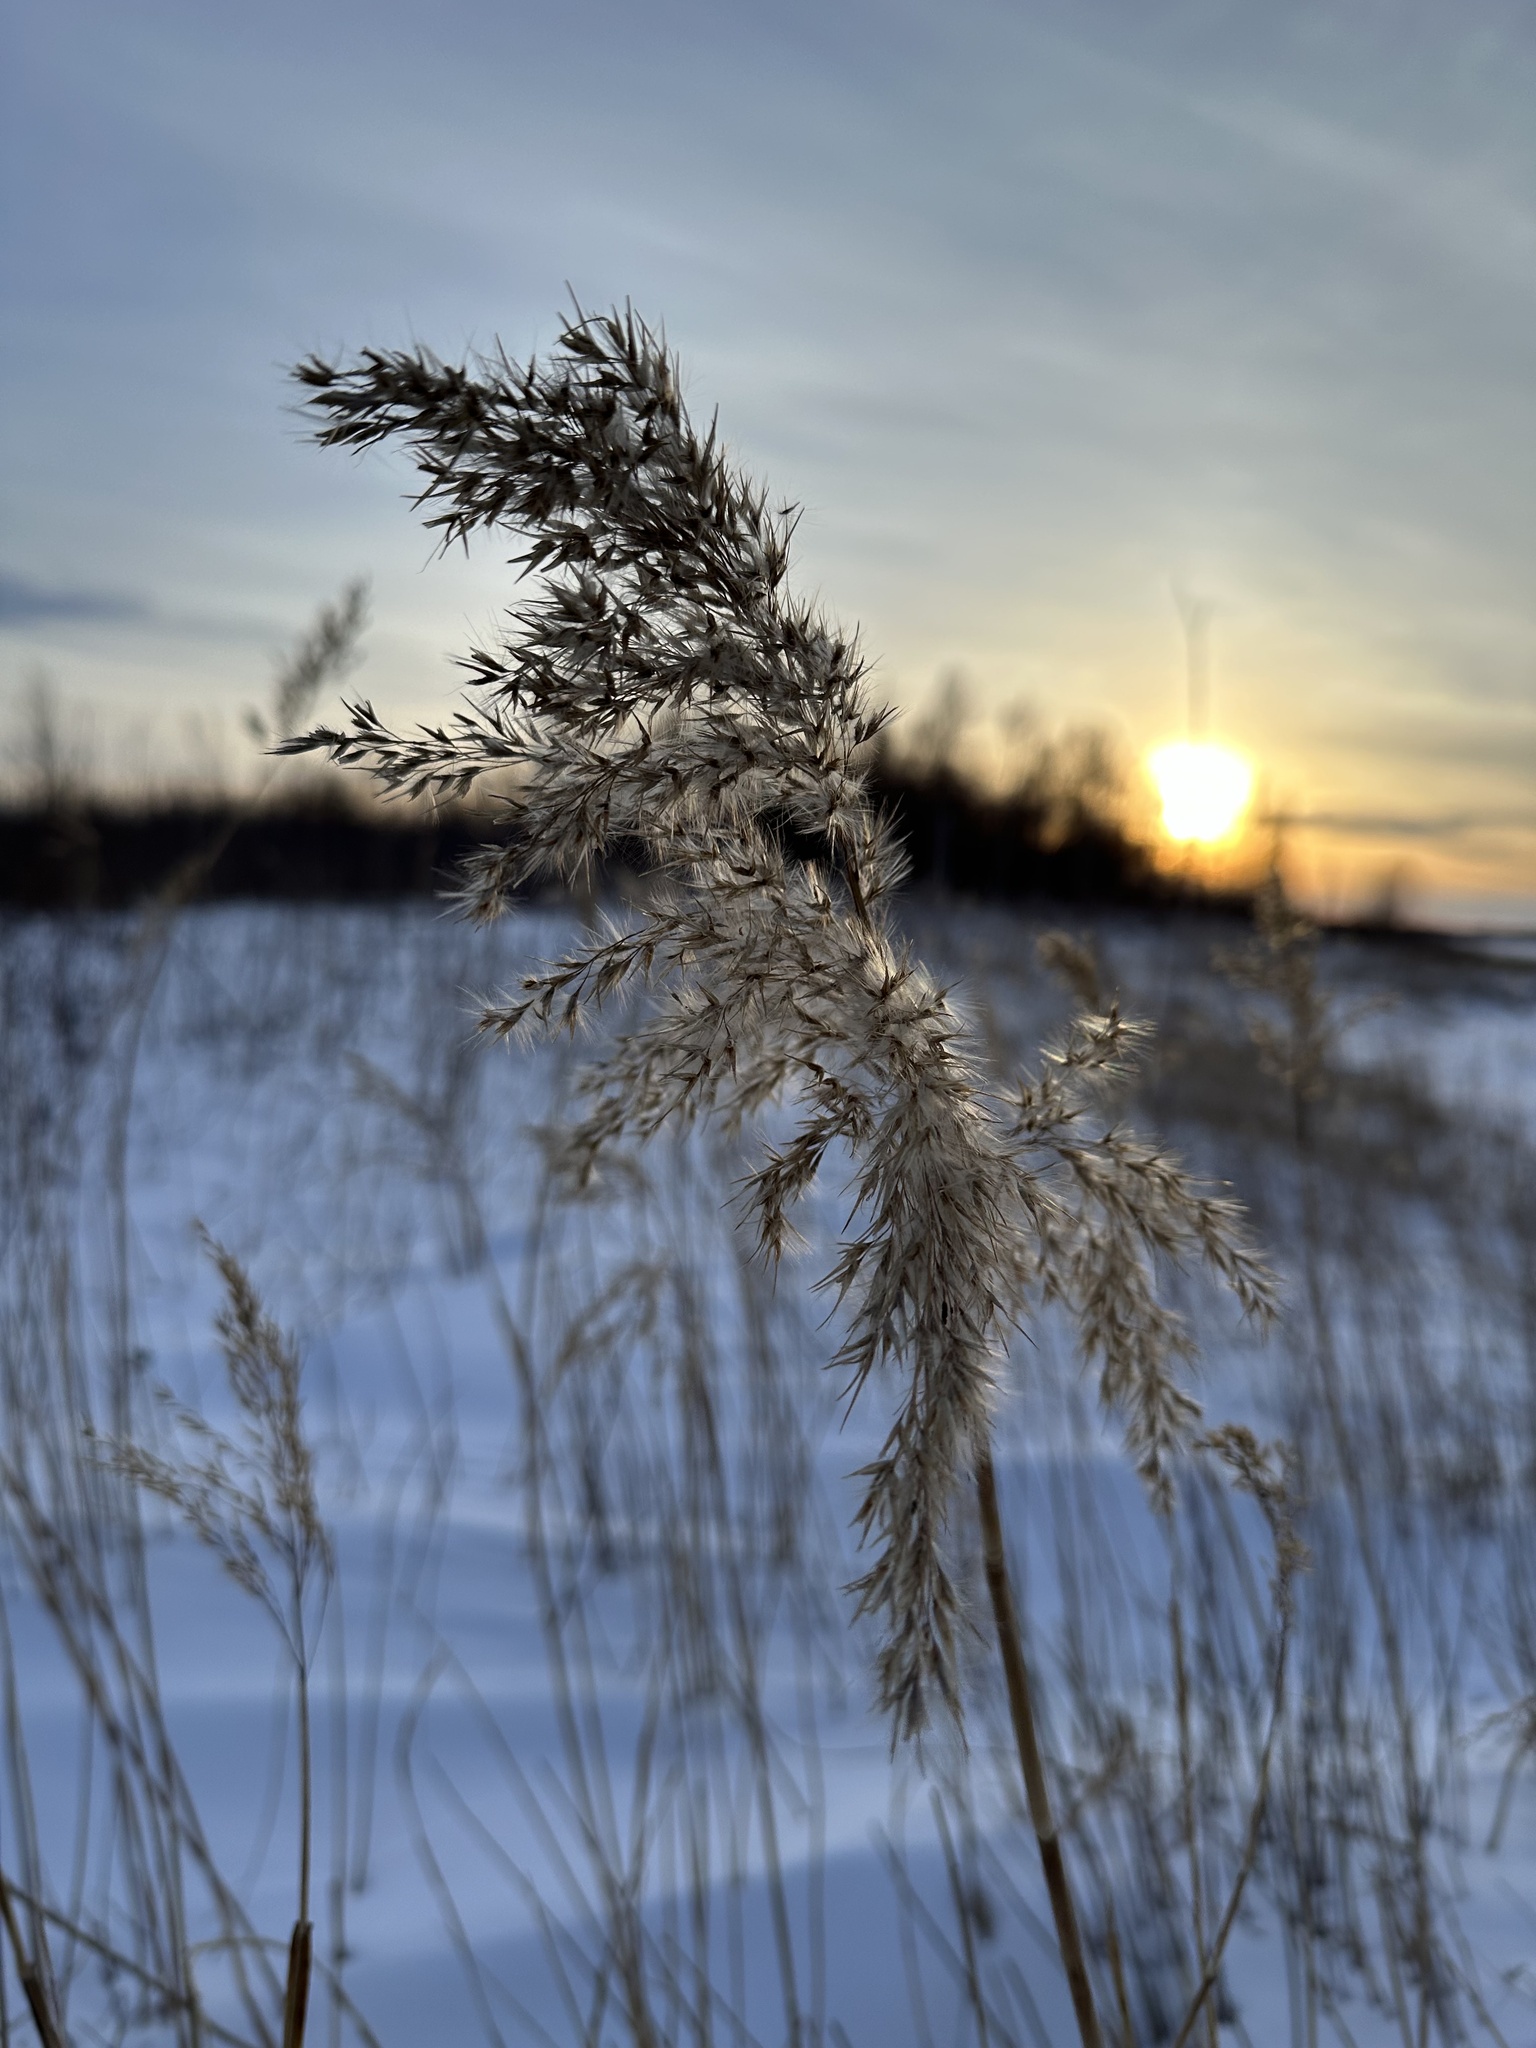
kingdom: Plantae
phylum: Tracheophyta
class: Liliopsida
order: Poales
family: Poaceae
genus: Phragmites
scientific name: Phragmites australis
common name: Common reed
